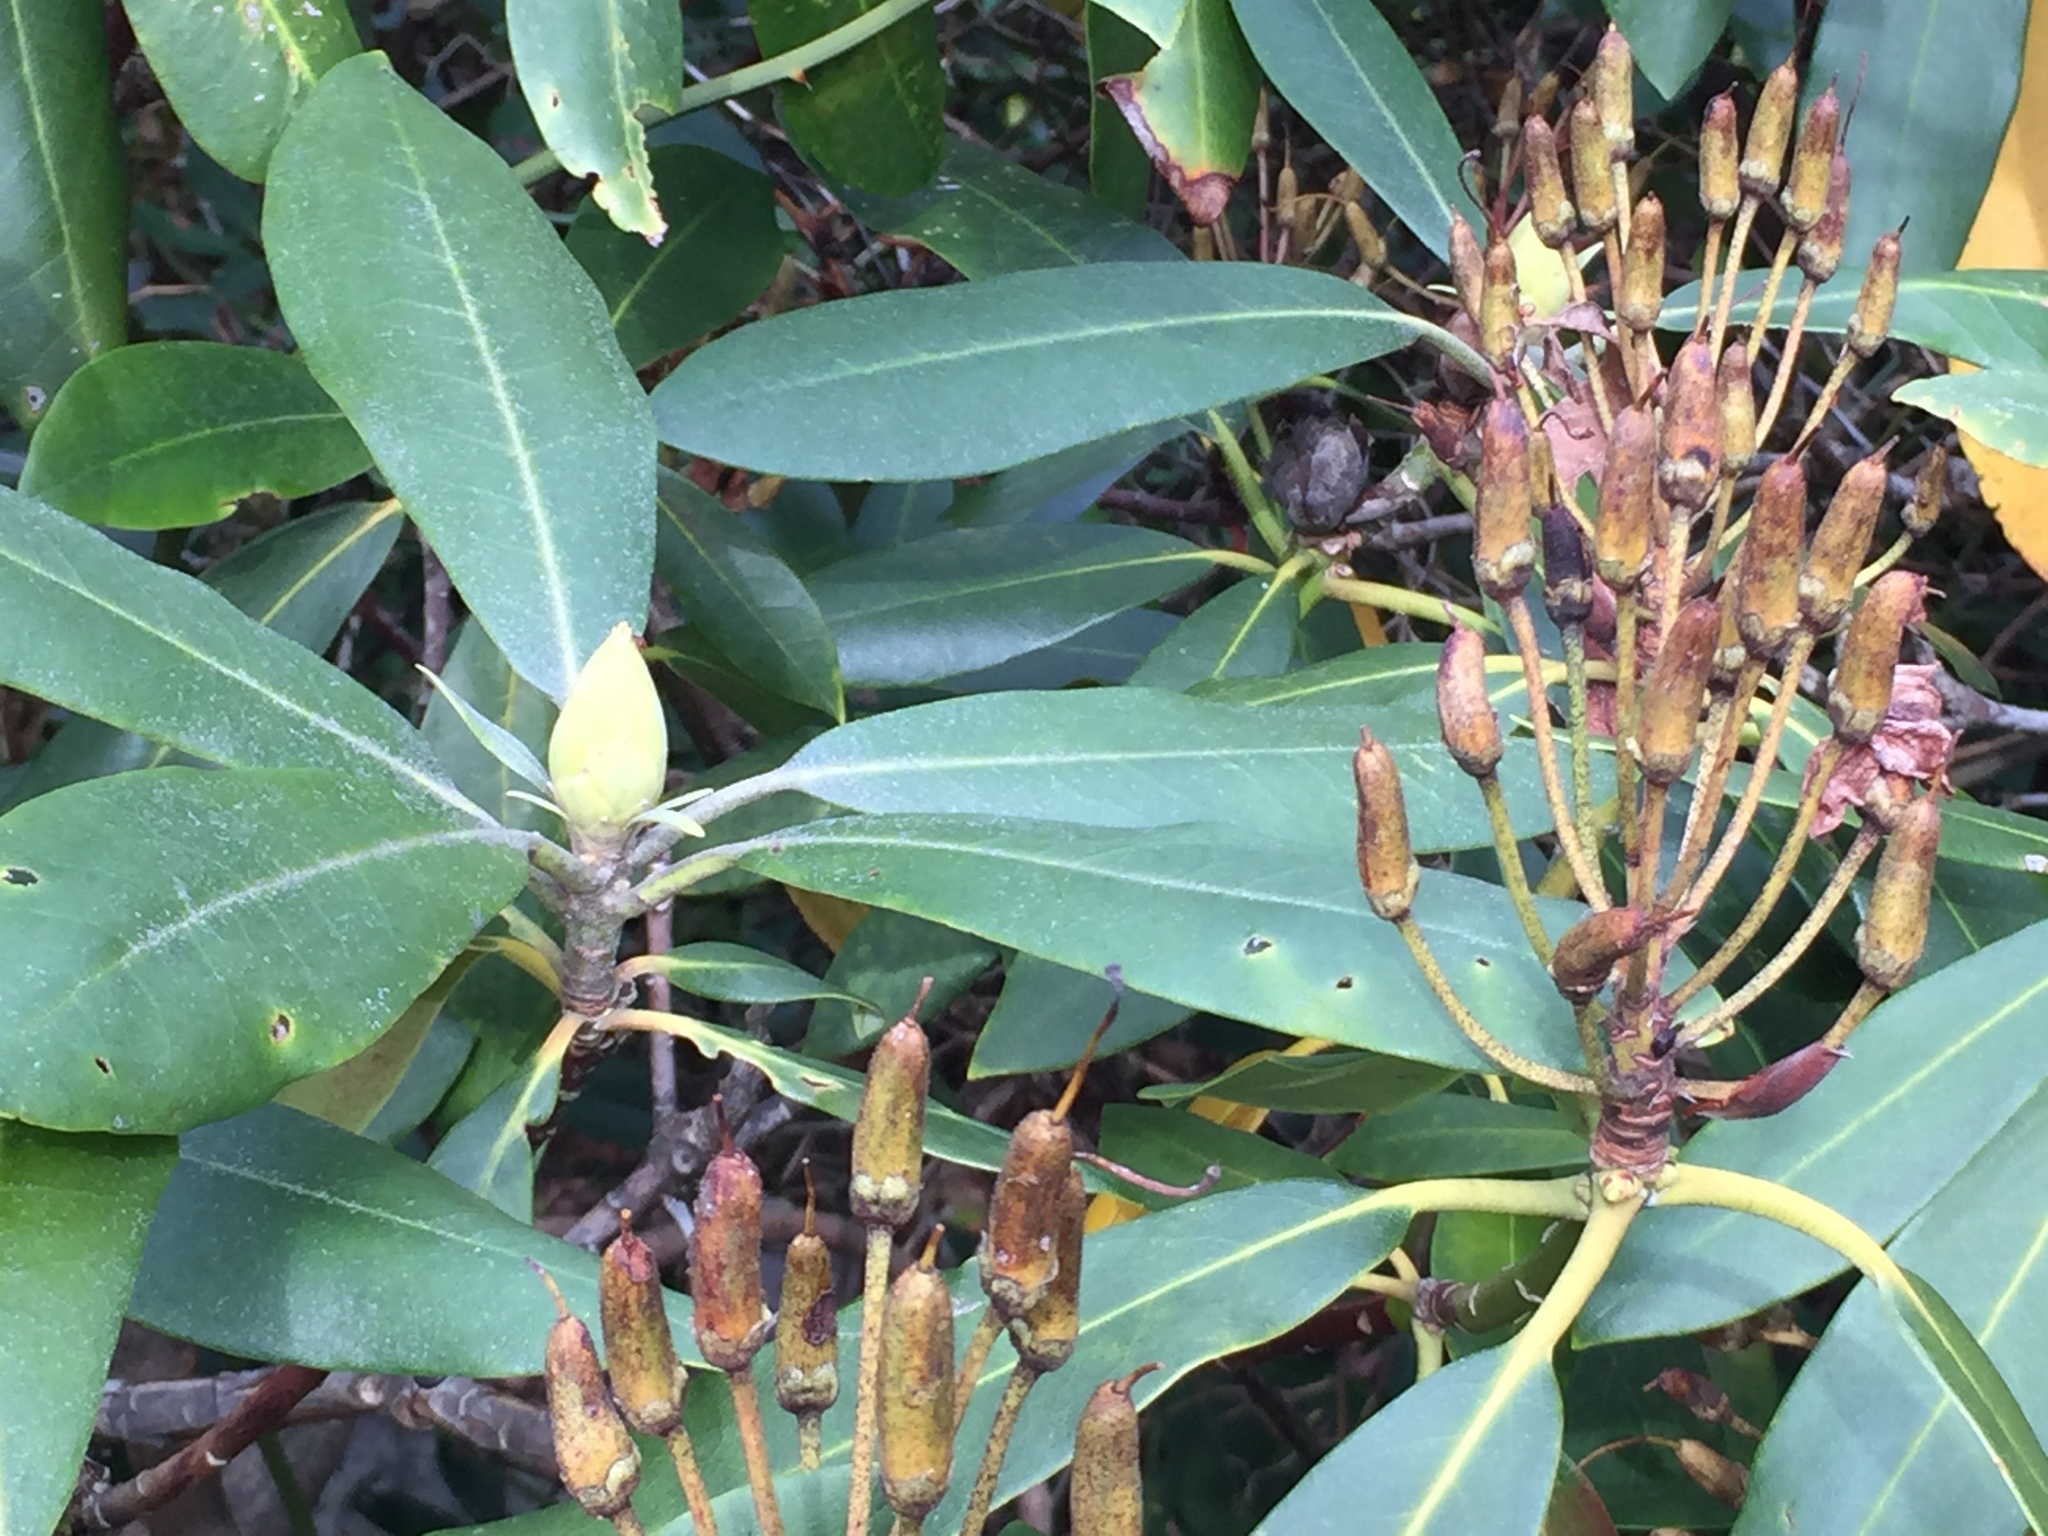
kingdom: Plantae
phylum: Tracheophyta
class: Magnoliopsida
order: Ericales
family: Ericaceae
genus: Rhododendron
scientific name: Rhododendron maximum
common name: Great rhododendron
